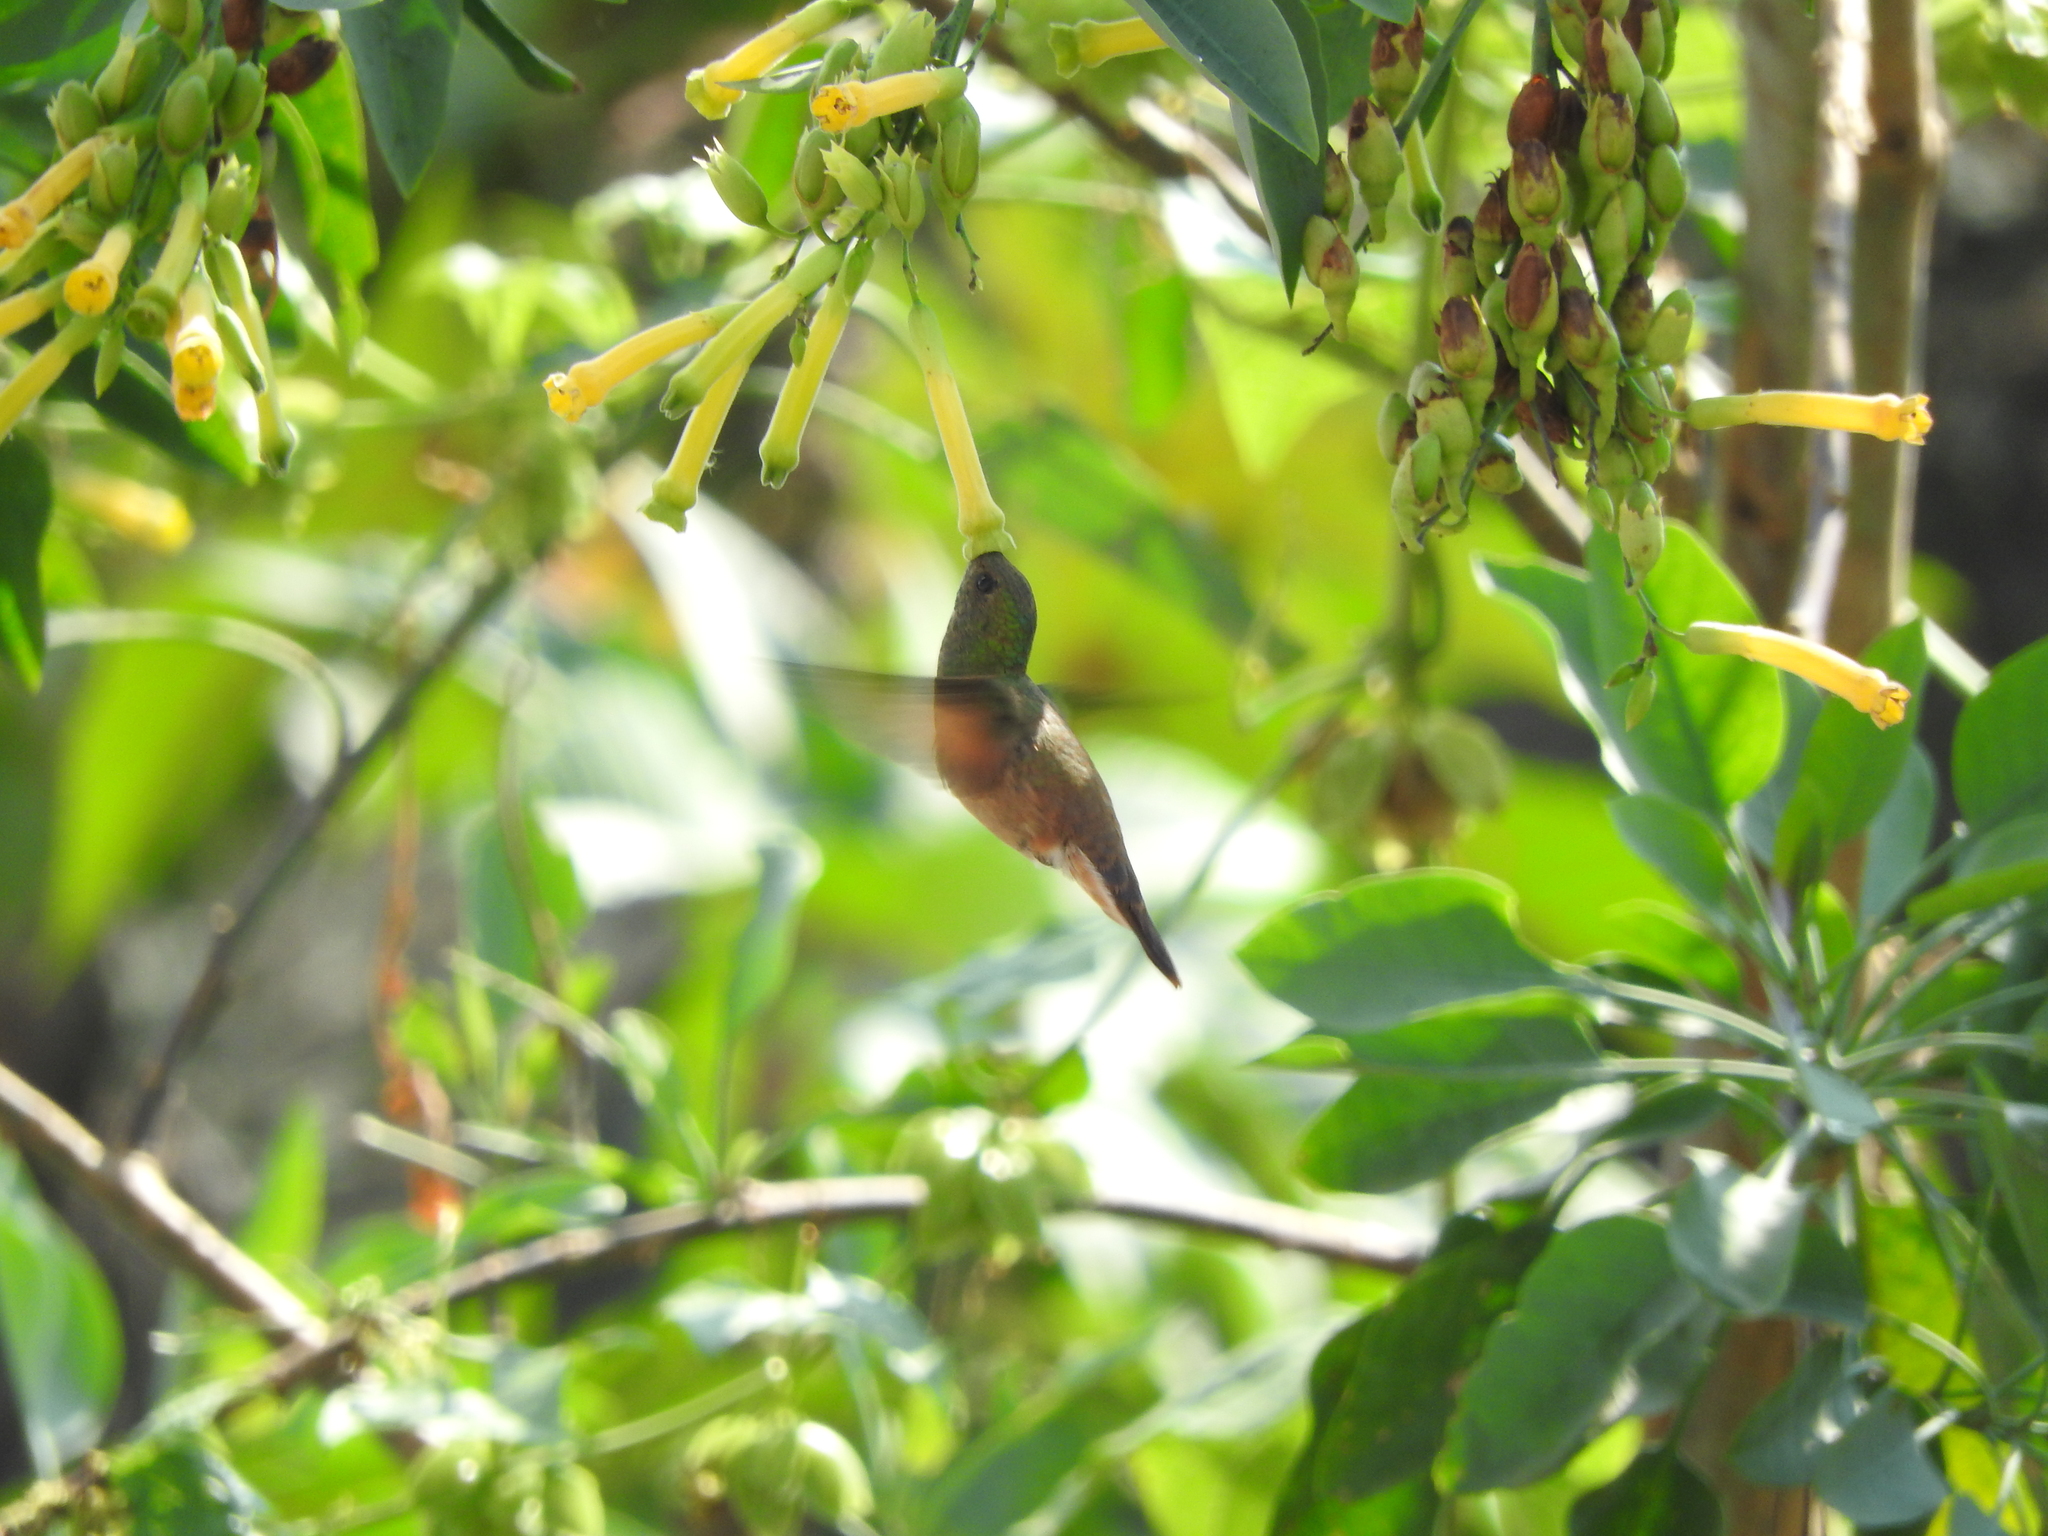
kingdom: Animalia
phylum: Chordata
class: Aves
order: Apodiformes
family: Trochilidae
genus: Saucerottia
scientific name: Saucerottia beryllina
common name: Berylline hummingbird
